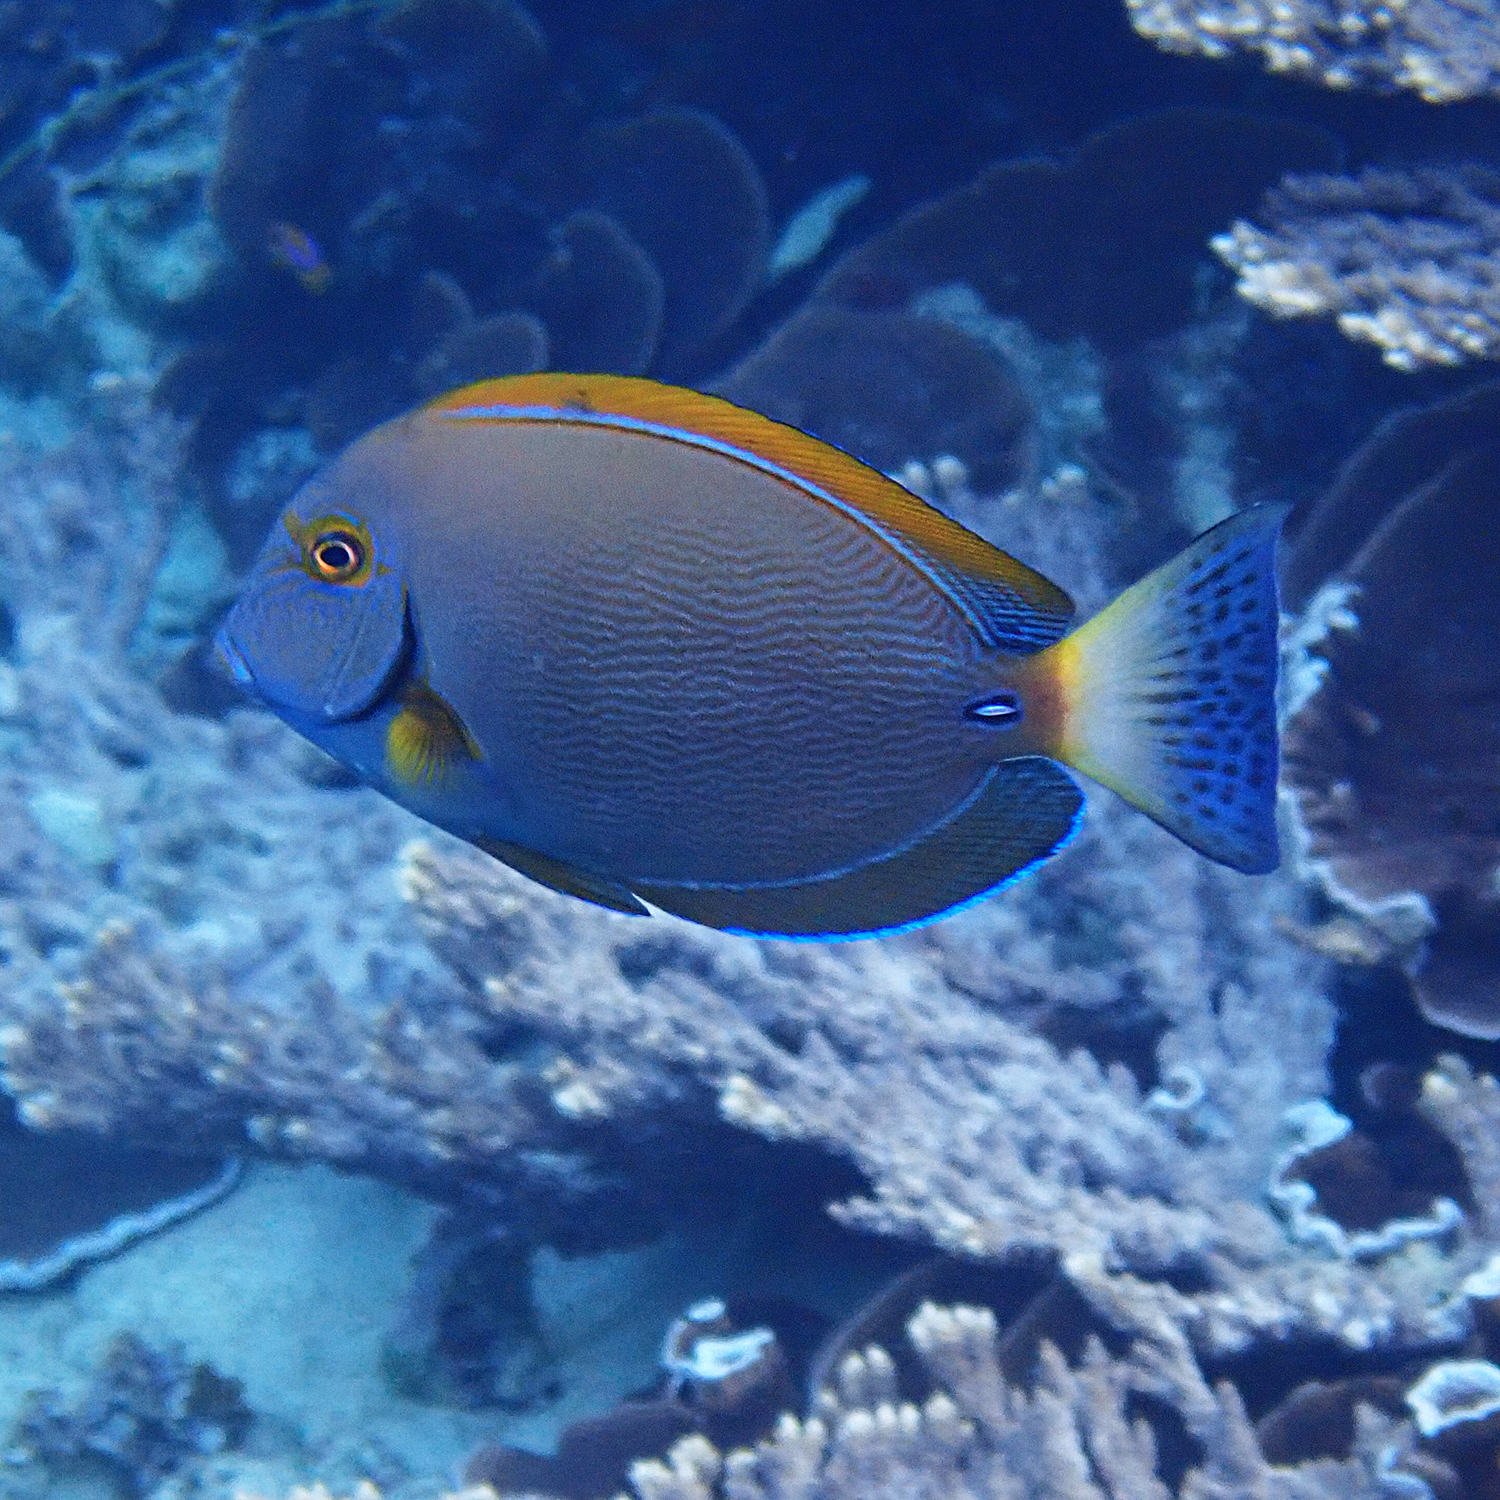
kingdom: Animalia
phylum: Chordata
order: Perciformes
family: Acanthuridae
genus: Acanthurus
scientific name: Acanthurus dussumieri
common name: Dussumier's surgeonfish
